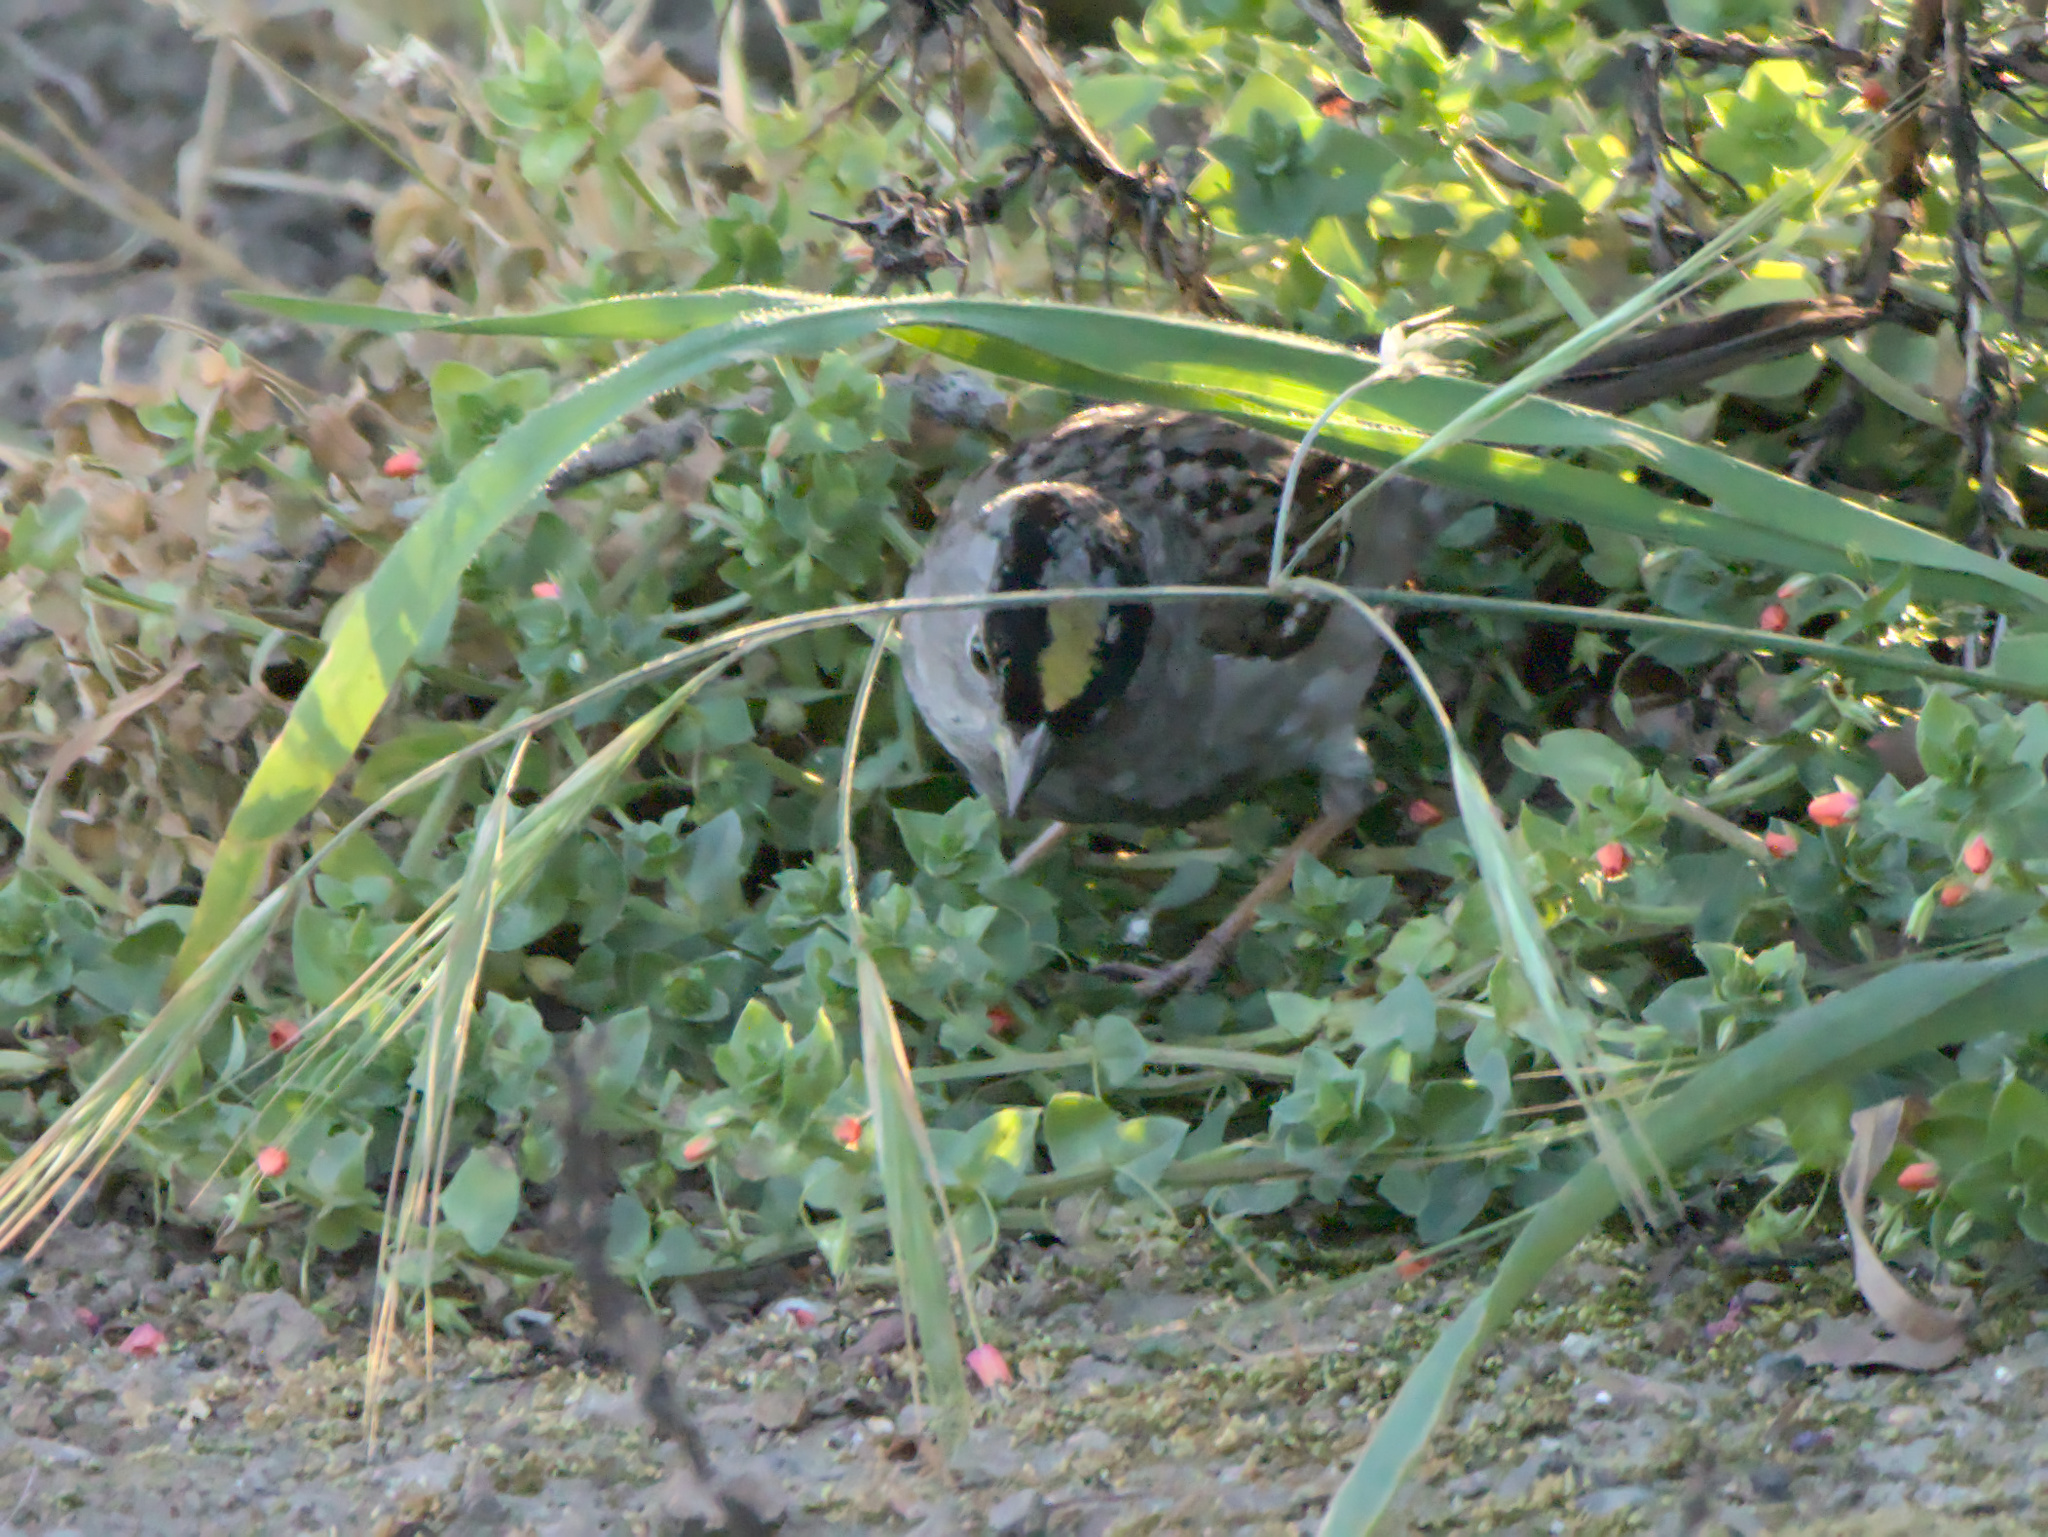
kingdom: Animalia
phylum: Chordata
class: Aves
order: Passeriformes
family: Passerellidae
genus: Zonotrichia
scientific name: Zonotrichia atricapilla
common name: Golden-crowned sparrow
